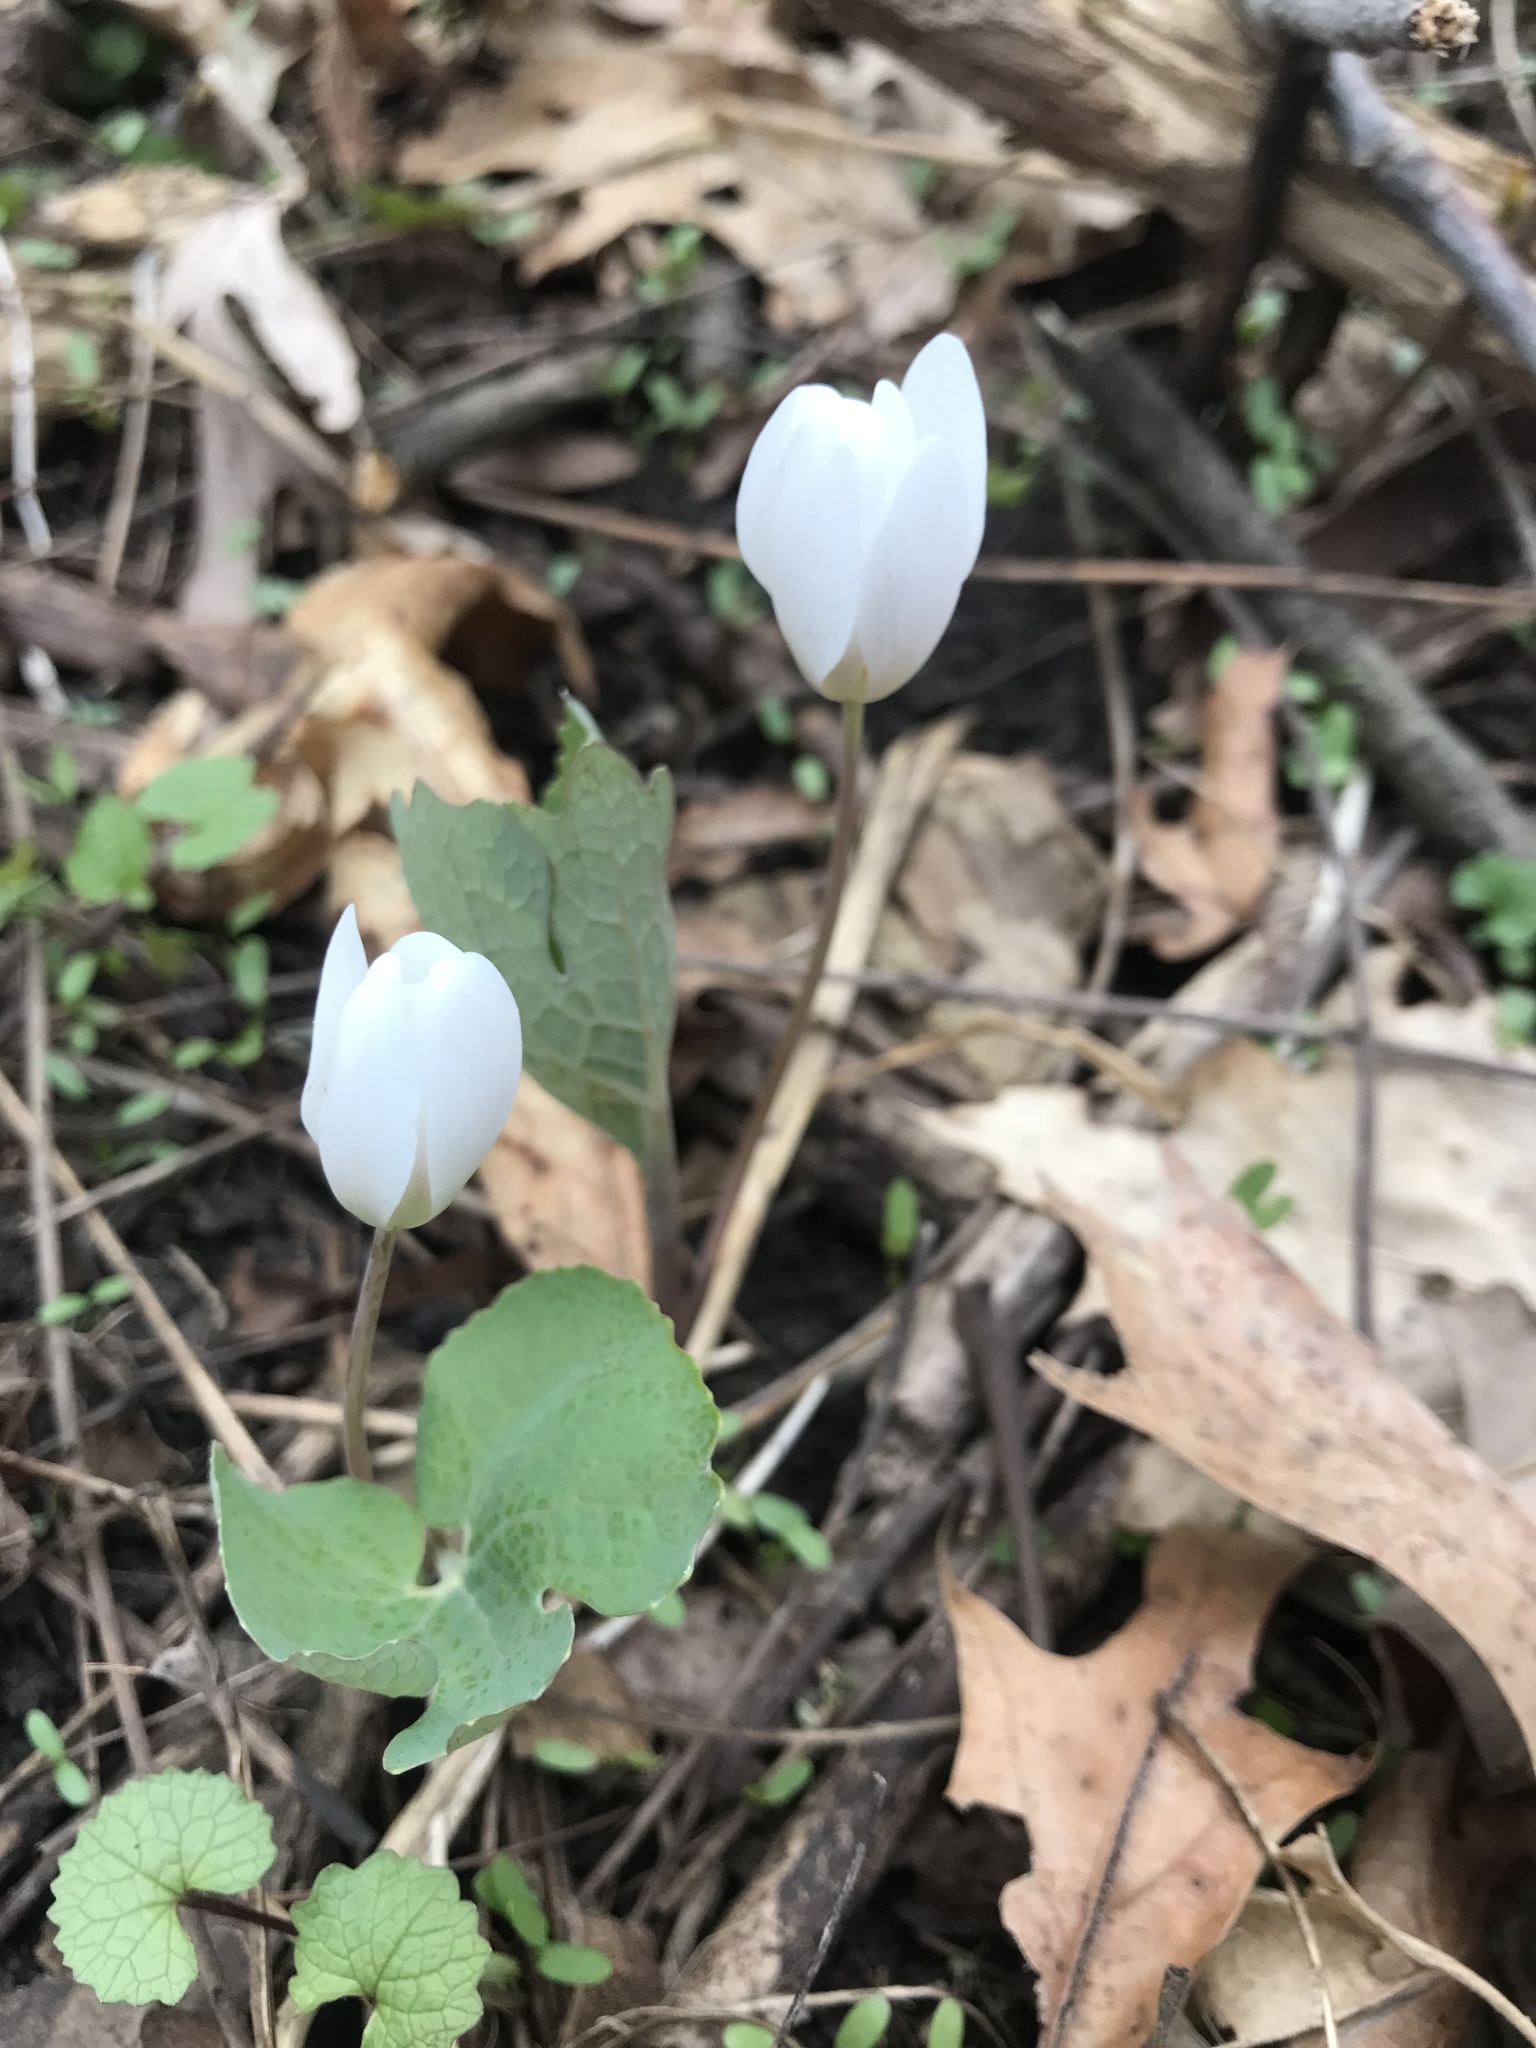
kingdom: Plantae
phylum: Tracheophyta
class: Magnoliopsida
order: Ranunculales
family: Papaveraceae
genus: Sanguinaria
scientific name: Sanguinaria canadensis
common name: Bloodroot
